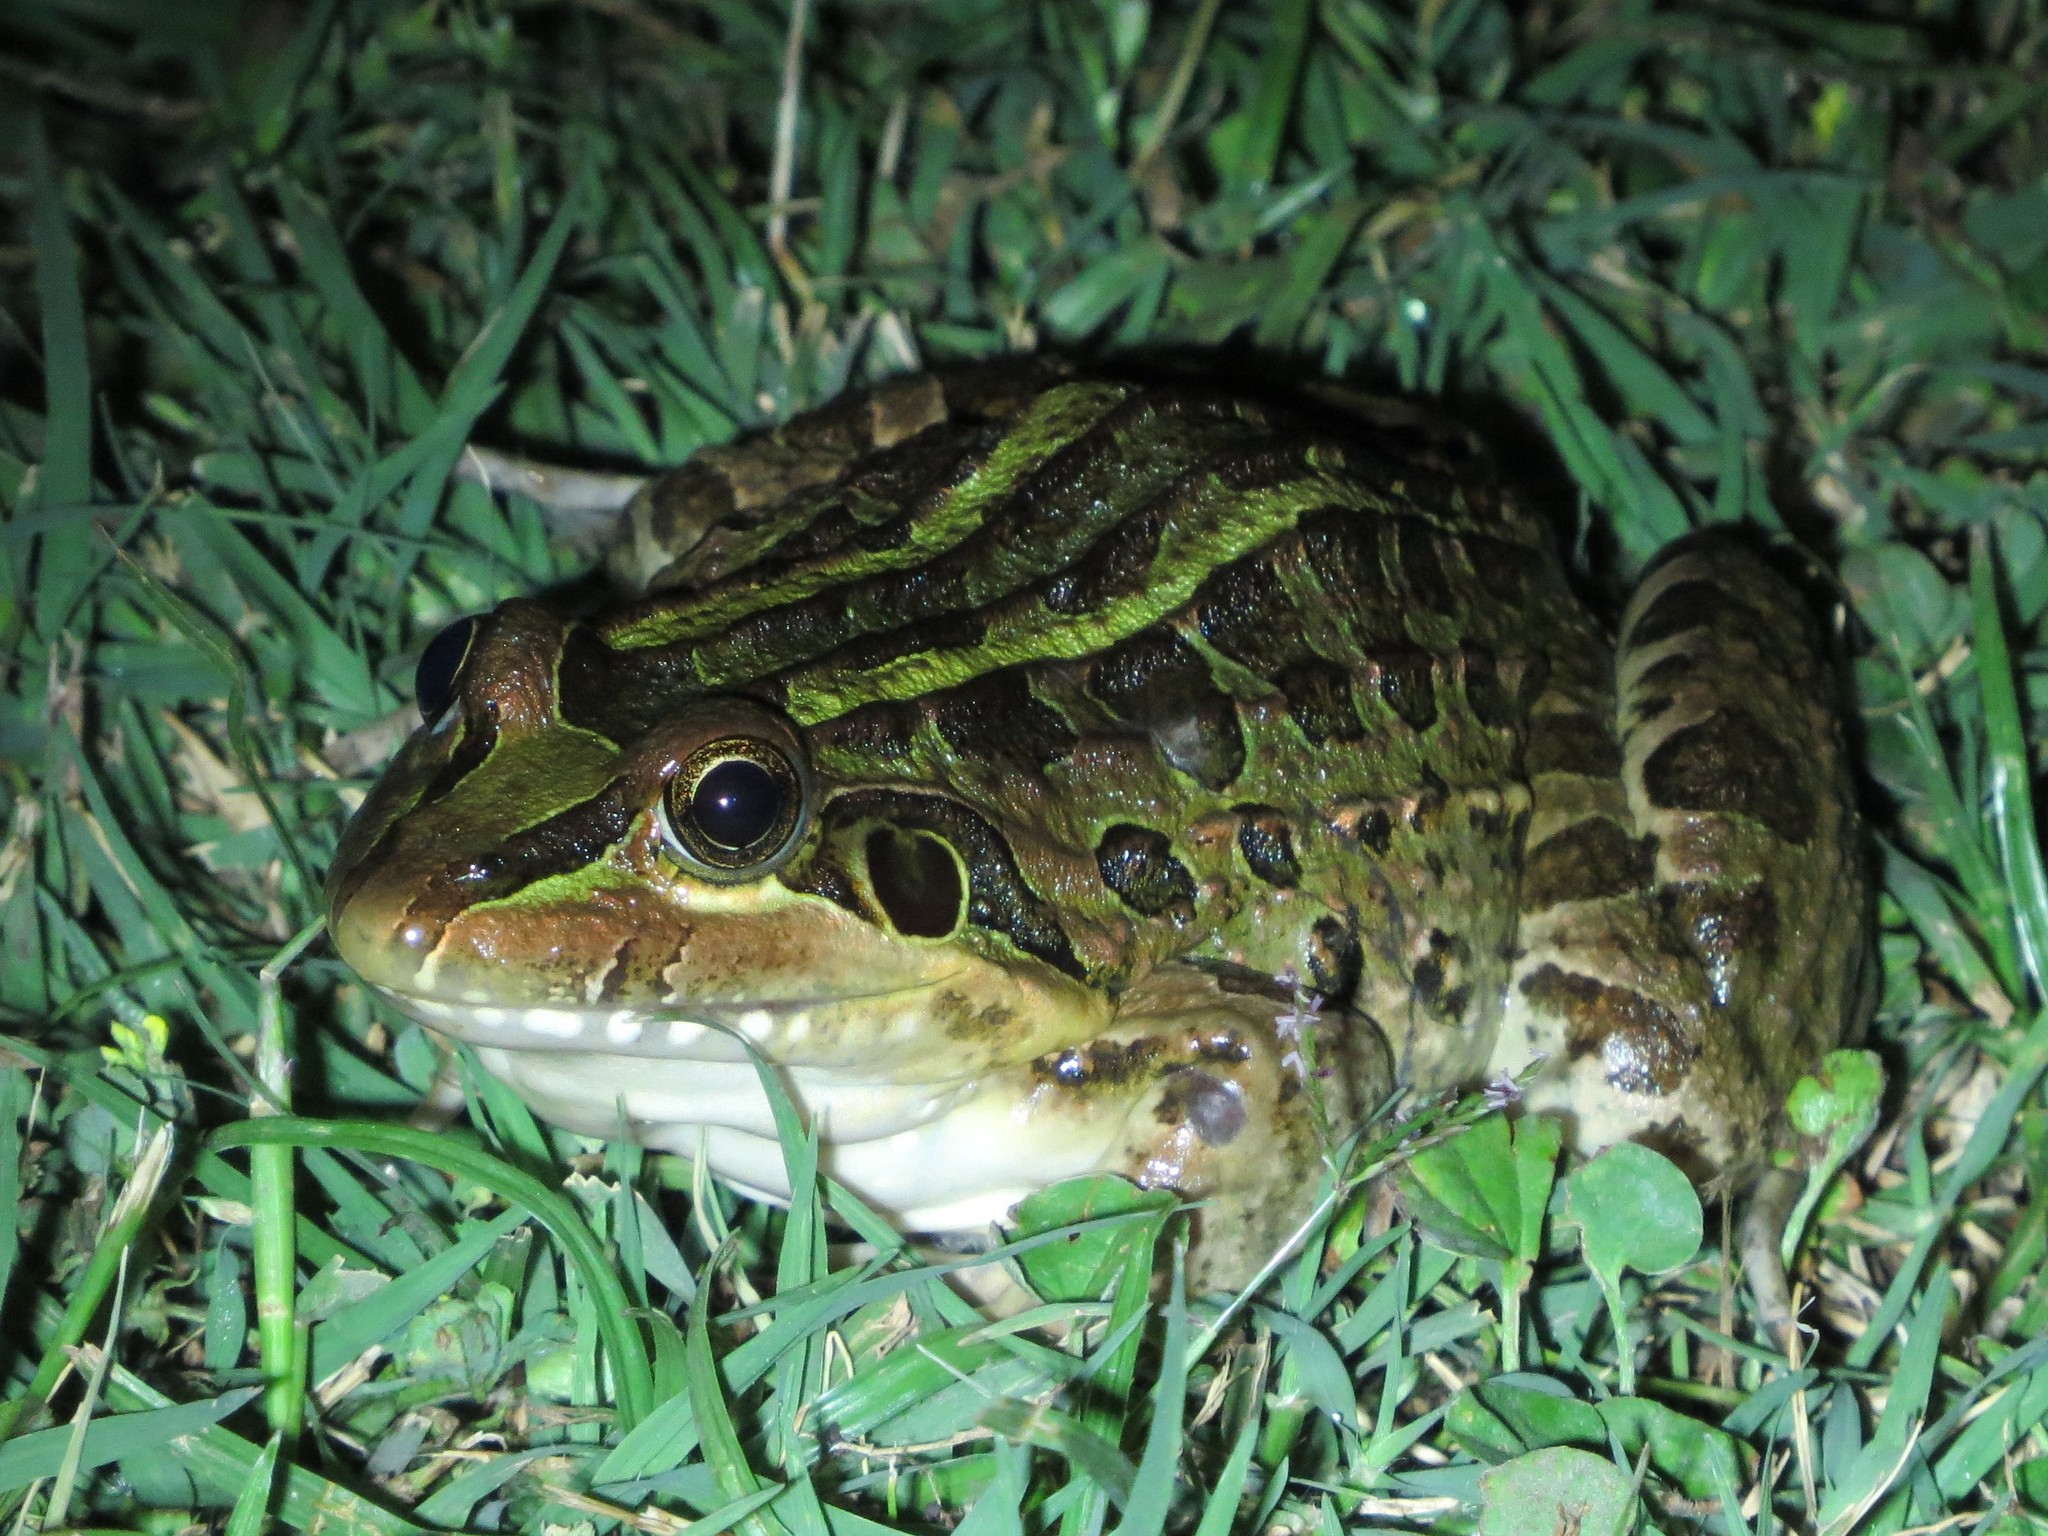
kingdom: Animalia
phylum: Chordata
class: Amphibia
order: Anura
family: Leptodactylidae
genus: Leptodactylus
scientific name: Leptodactylus luctator
